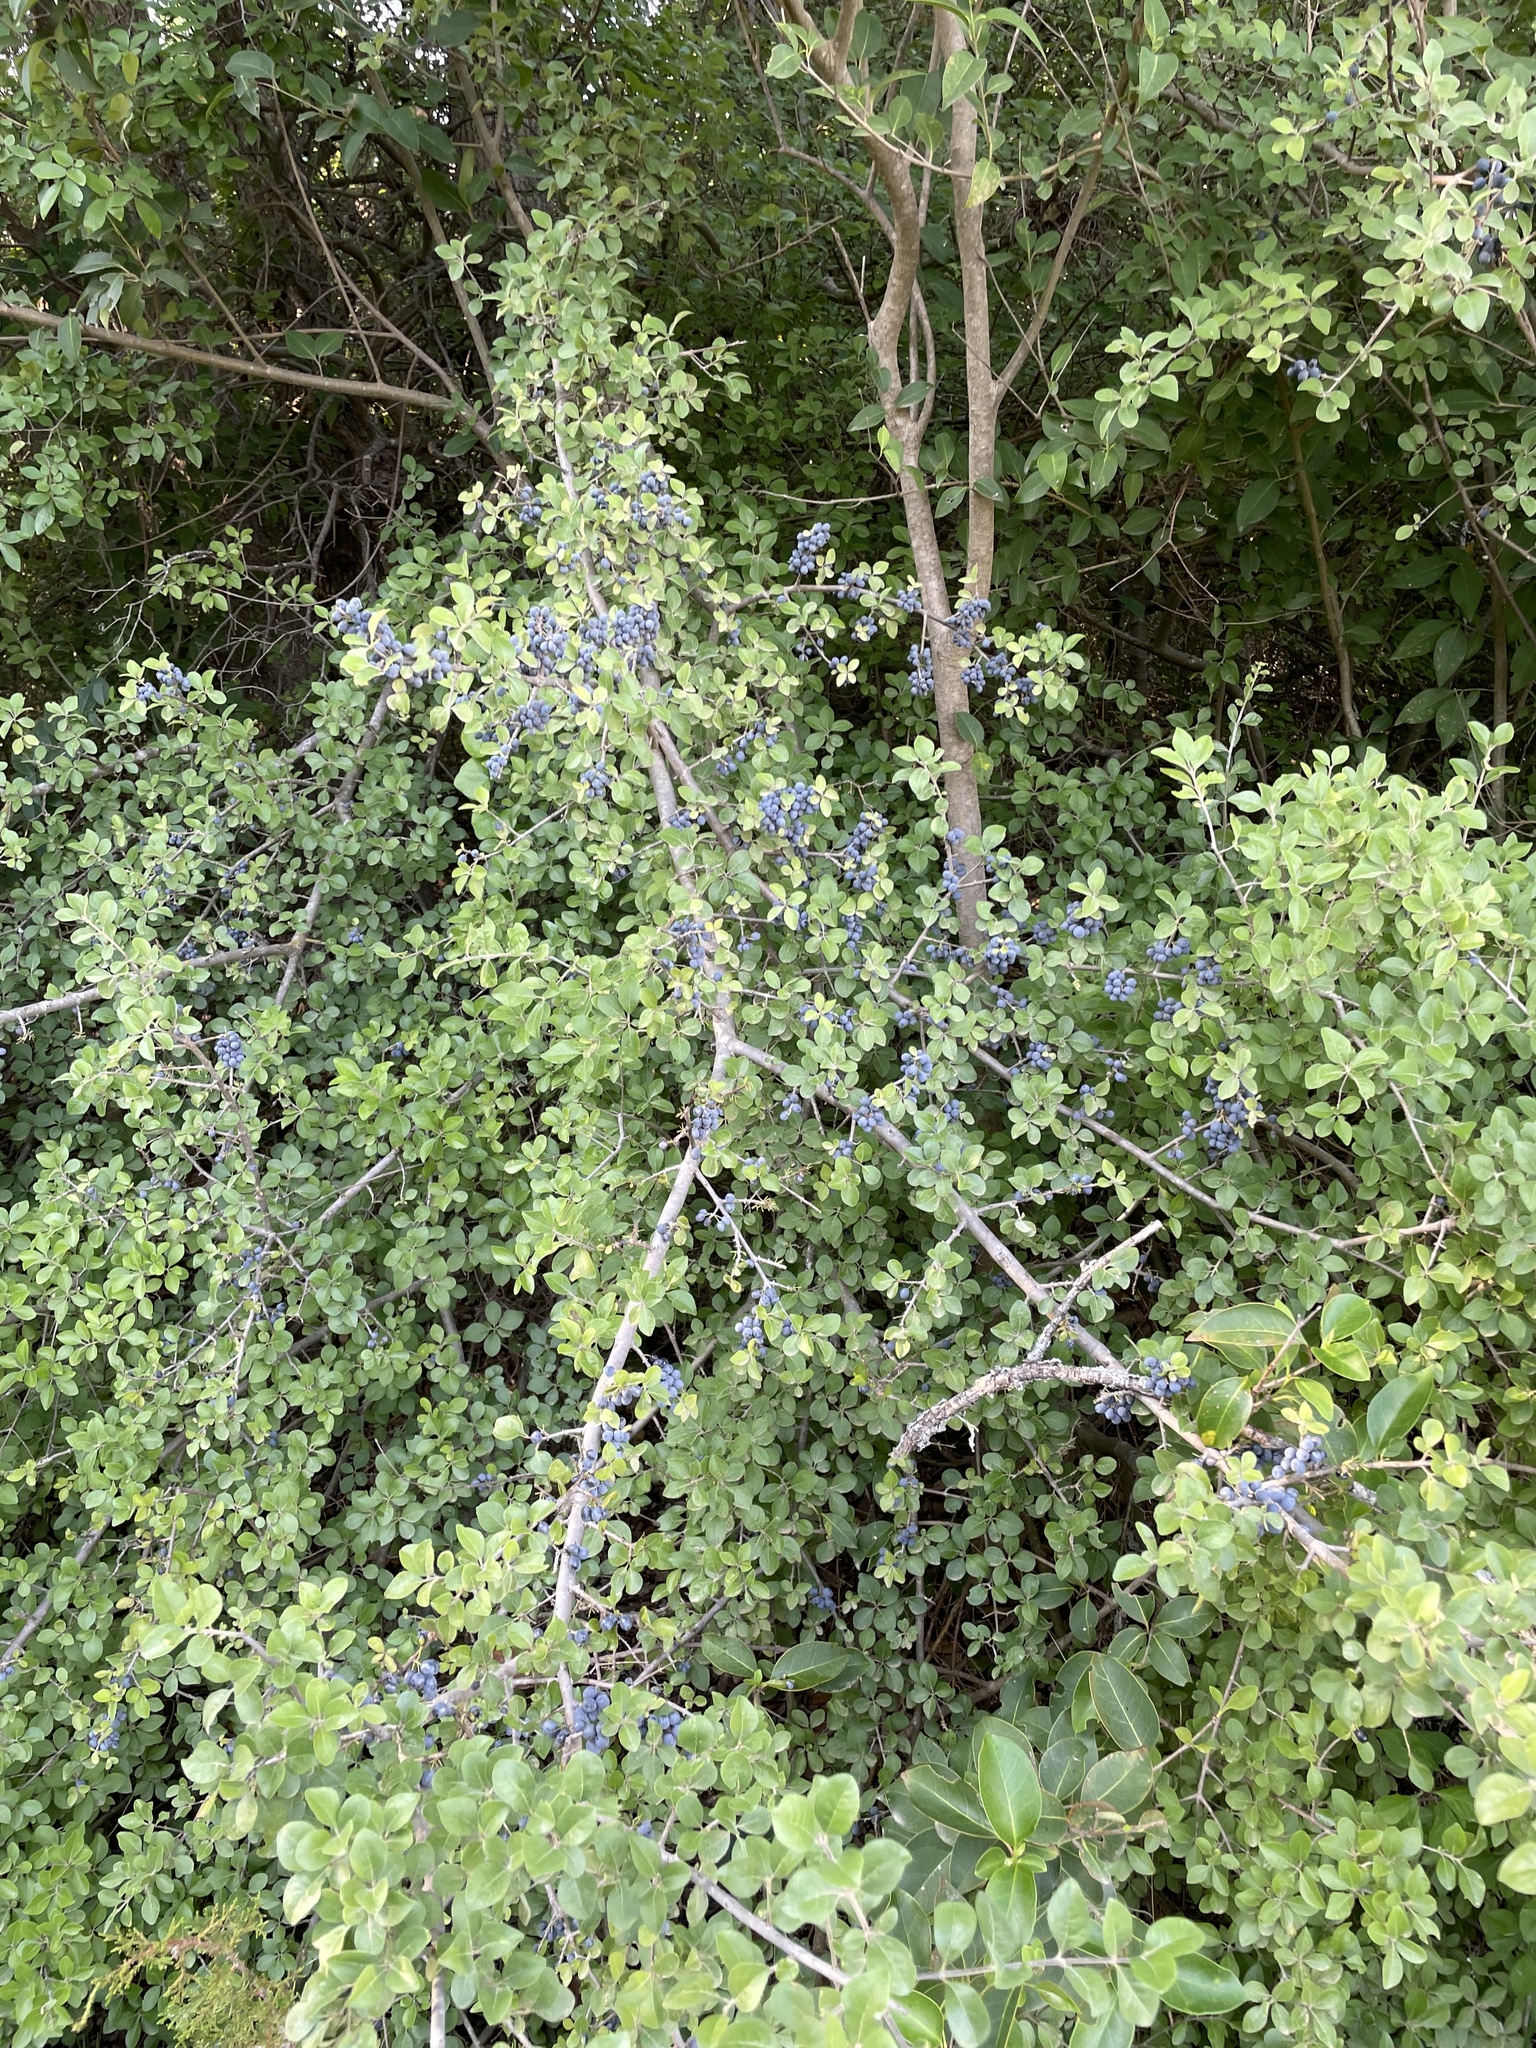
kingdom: Plantae
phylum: Tracheophyta
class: Magnoliopsida
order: Lamiales
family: Oleaceae
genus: Forestiera
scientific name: Forestiera pubescens
